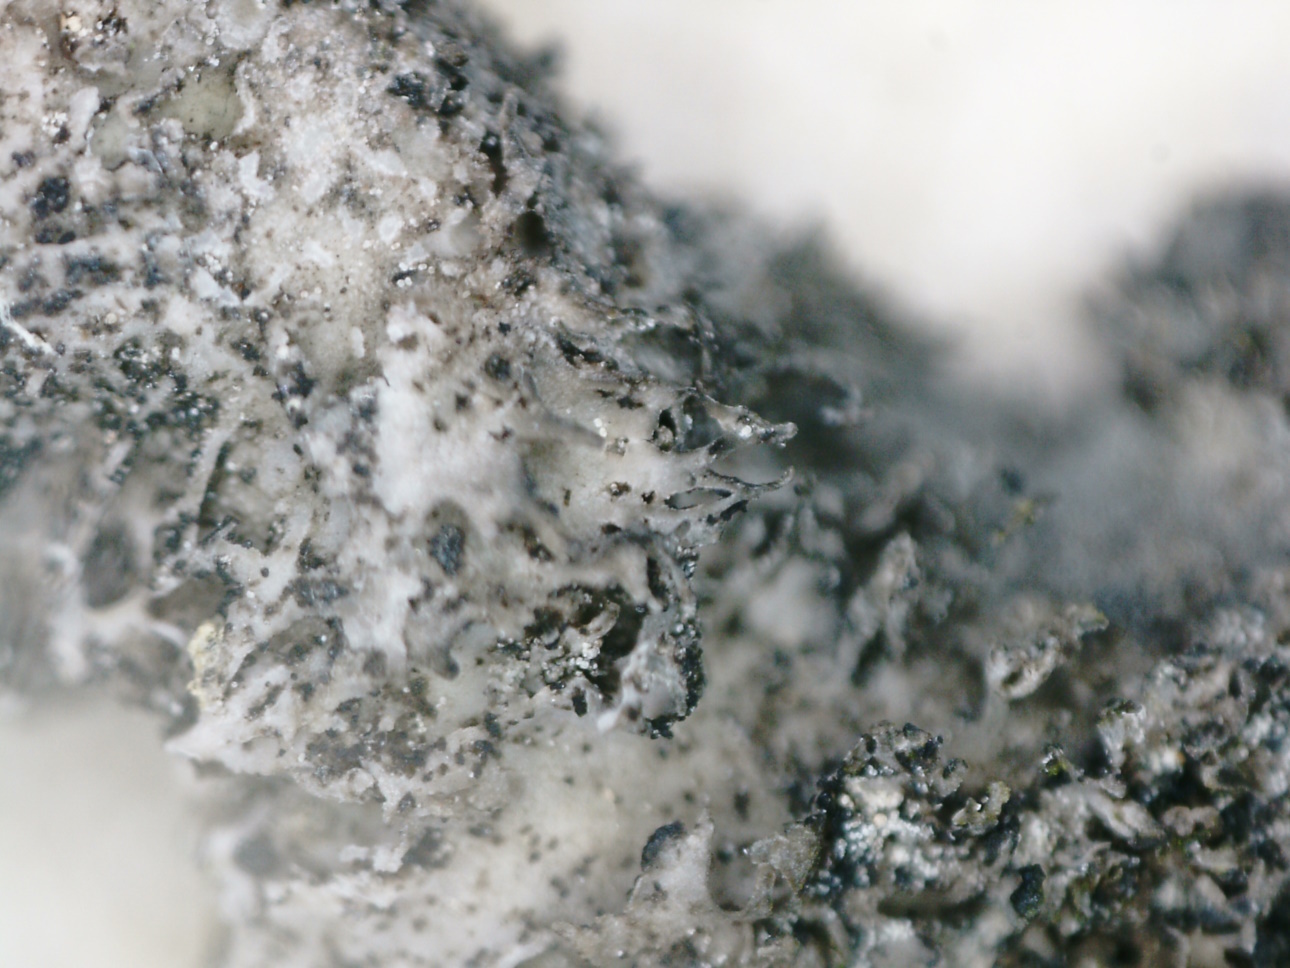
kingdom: Fungi
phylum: Ascomycota
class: Lecanoromycetes
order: Umbilicariales
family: Umbilicariaceae
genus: Umbilicaria
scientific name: Umbilicaria torrefacta
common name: Punctured rock tripe lichen
